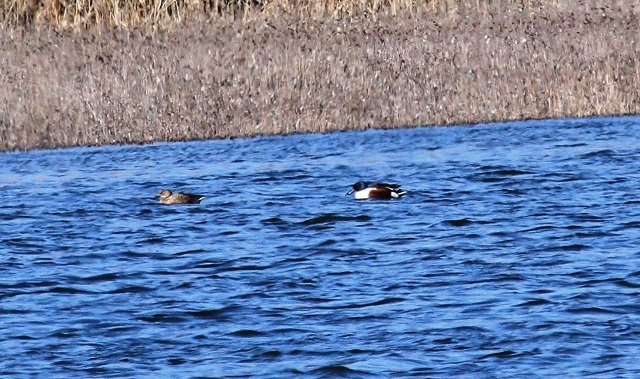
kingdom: Animalia
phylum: Chordata
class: Aves
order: Anseriformes
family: Anatidae
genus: Spatula
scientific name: Spatula clypeata
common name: Northern shoveler
